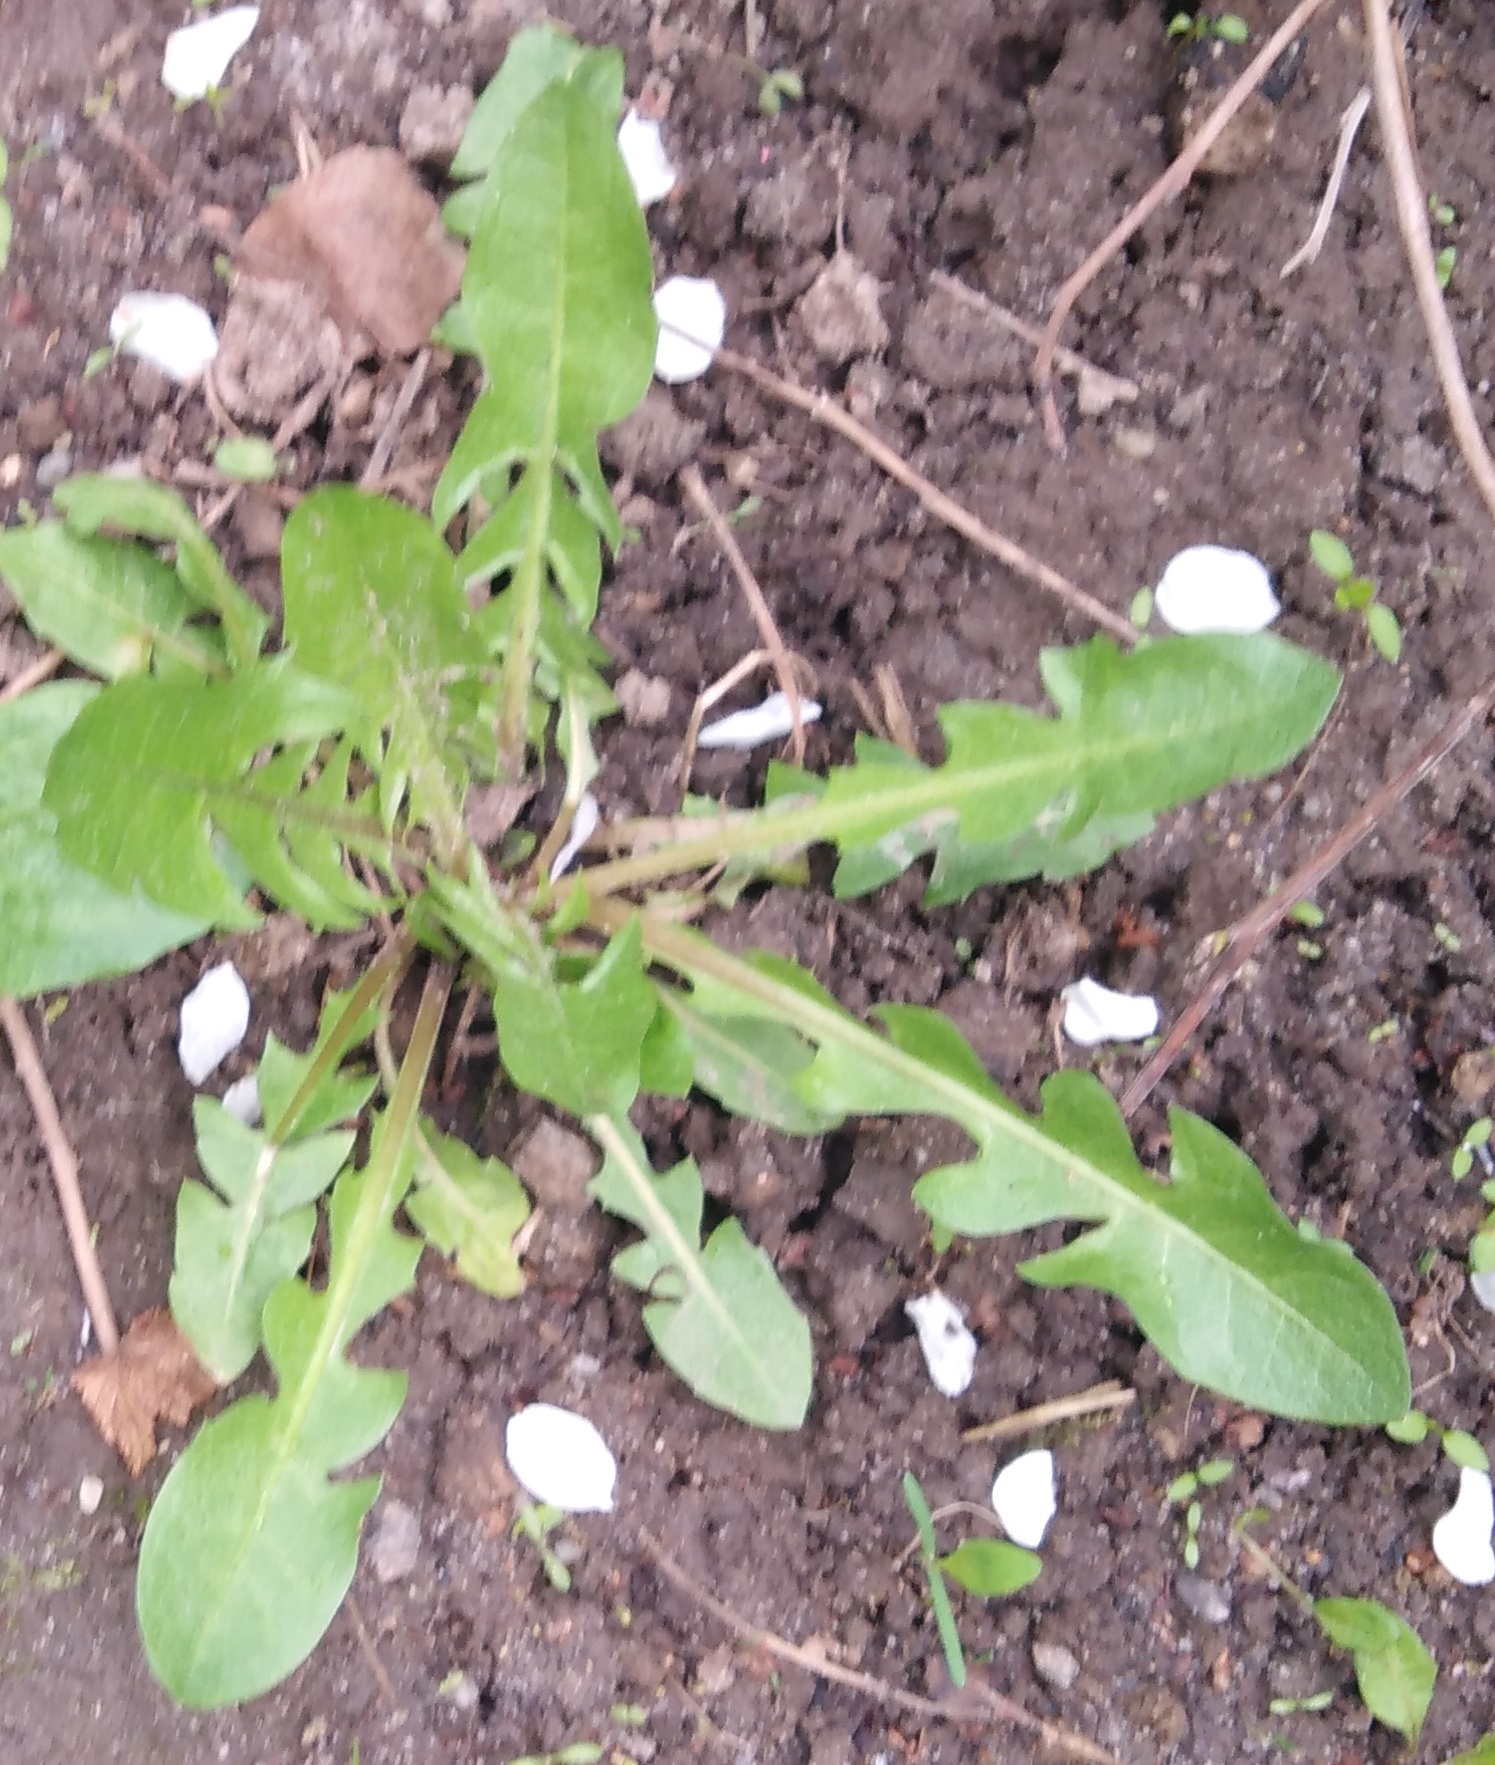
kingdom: Plantae
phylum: Tracheophyta
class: Magnoliopsida
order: Asterales
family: Asteraceae
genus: Taraxacum
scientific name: Taraxacum officinale
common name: Common dandelion
